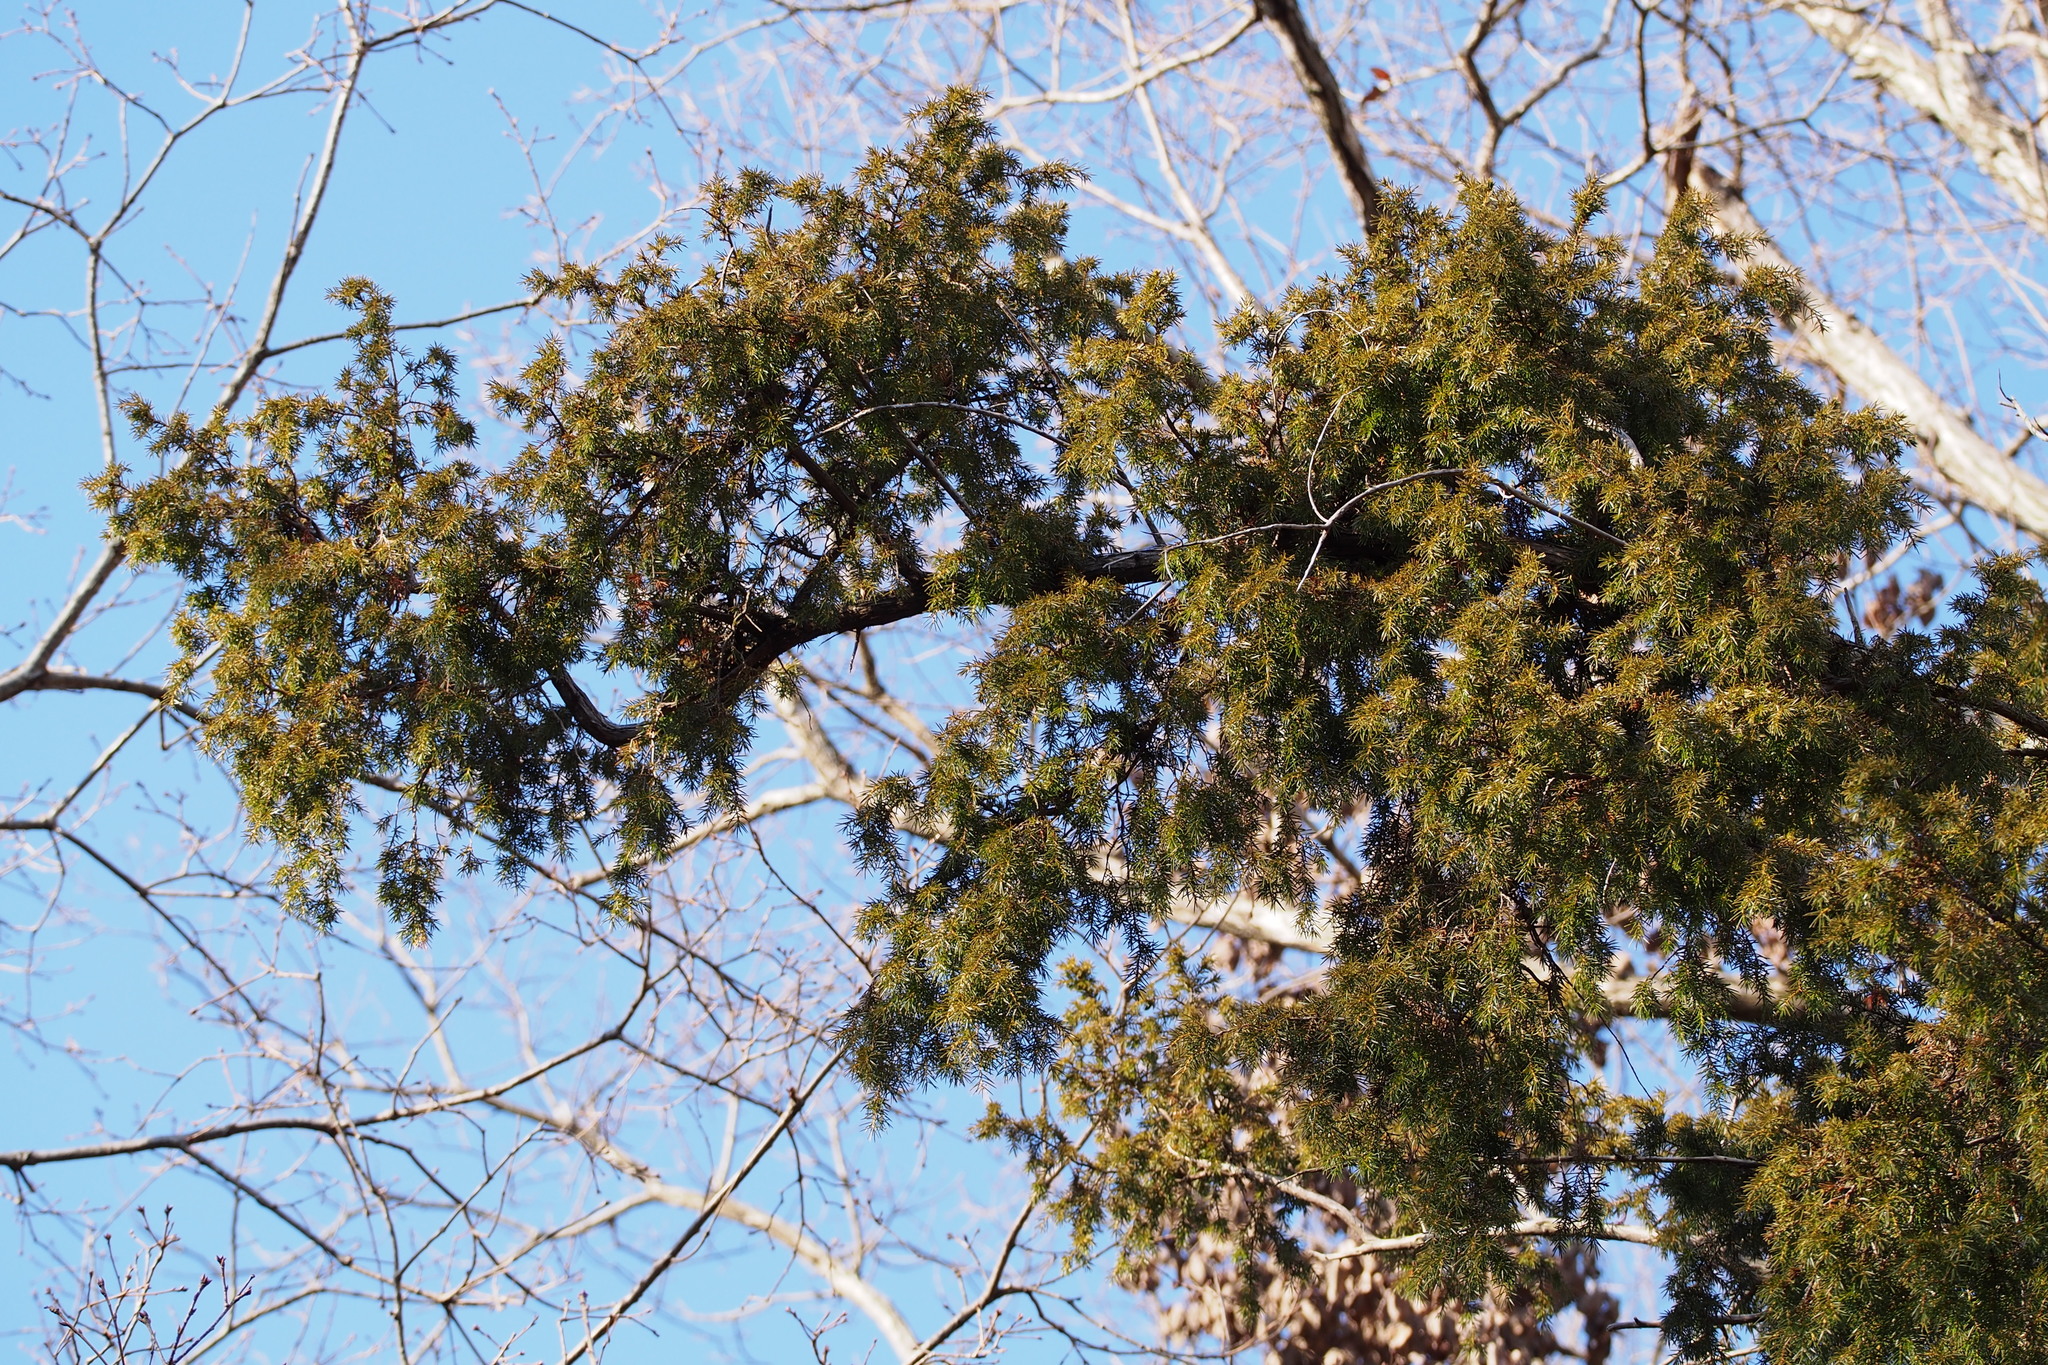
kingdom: Plantae
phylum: Tracheophyta
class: Pinopsida
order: Pinales
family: Cupressaceae
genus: Juniperus
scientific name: Juniperus rigida
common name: Needle juniper
